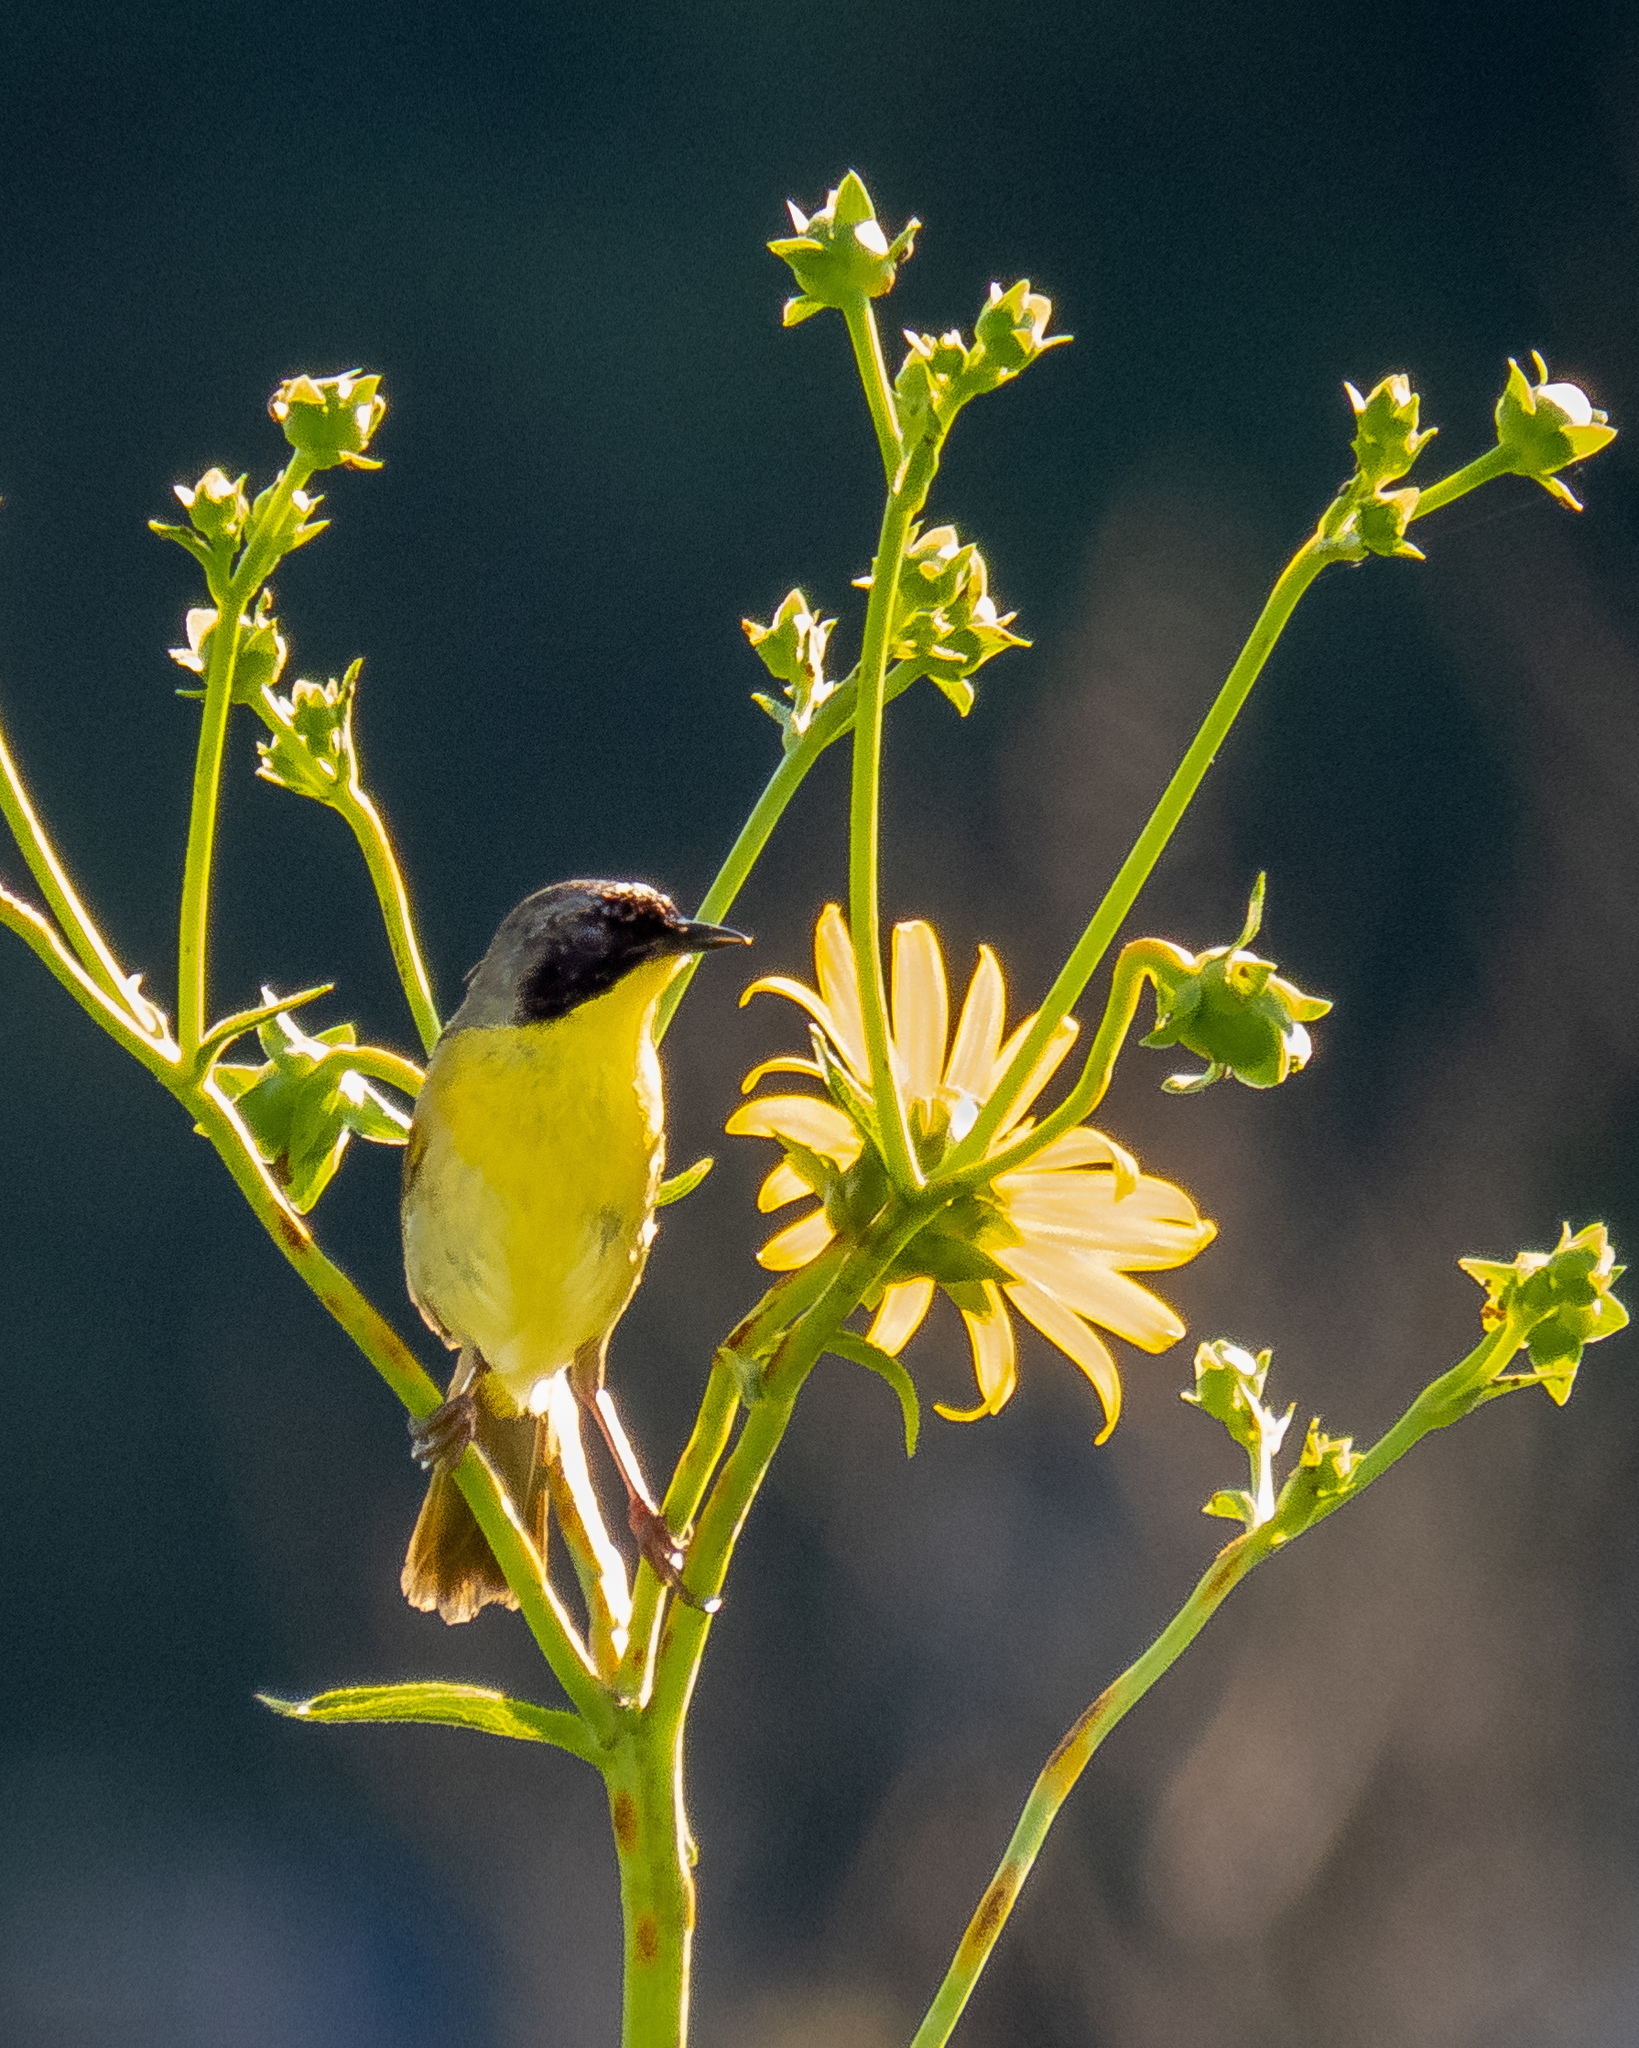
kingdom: Animalia
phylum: Chordata
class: Aves
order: Passeriformes
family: Parulidae
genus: Geothlypis
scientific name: Geothlypis trichas
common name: Common yellowthroat
